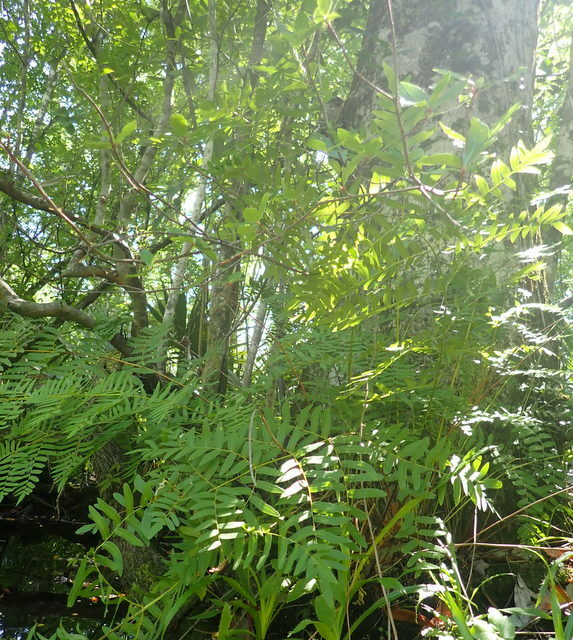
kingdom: Plantae
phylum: Tracheophyta
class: Polypodiopsida
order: Osmundales
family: Osmundaceae
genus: Osmunda
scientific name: Osmunda spectabilis
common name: American royal fern
